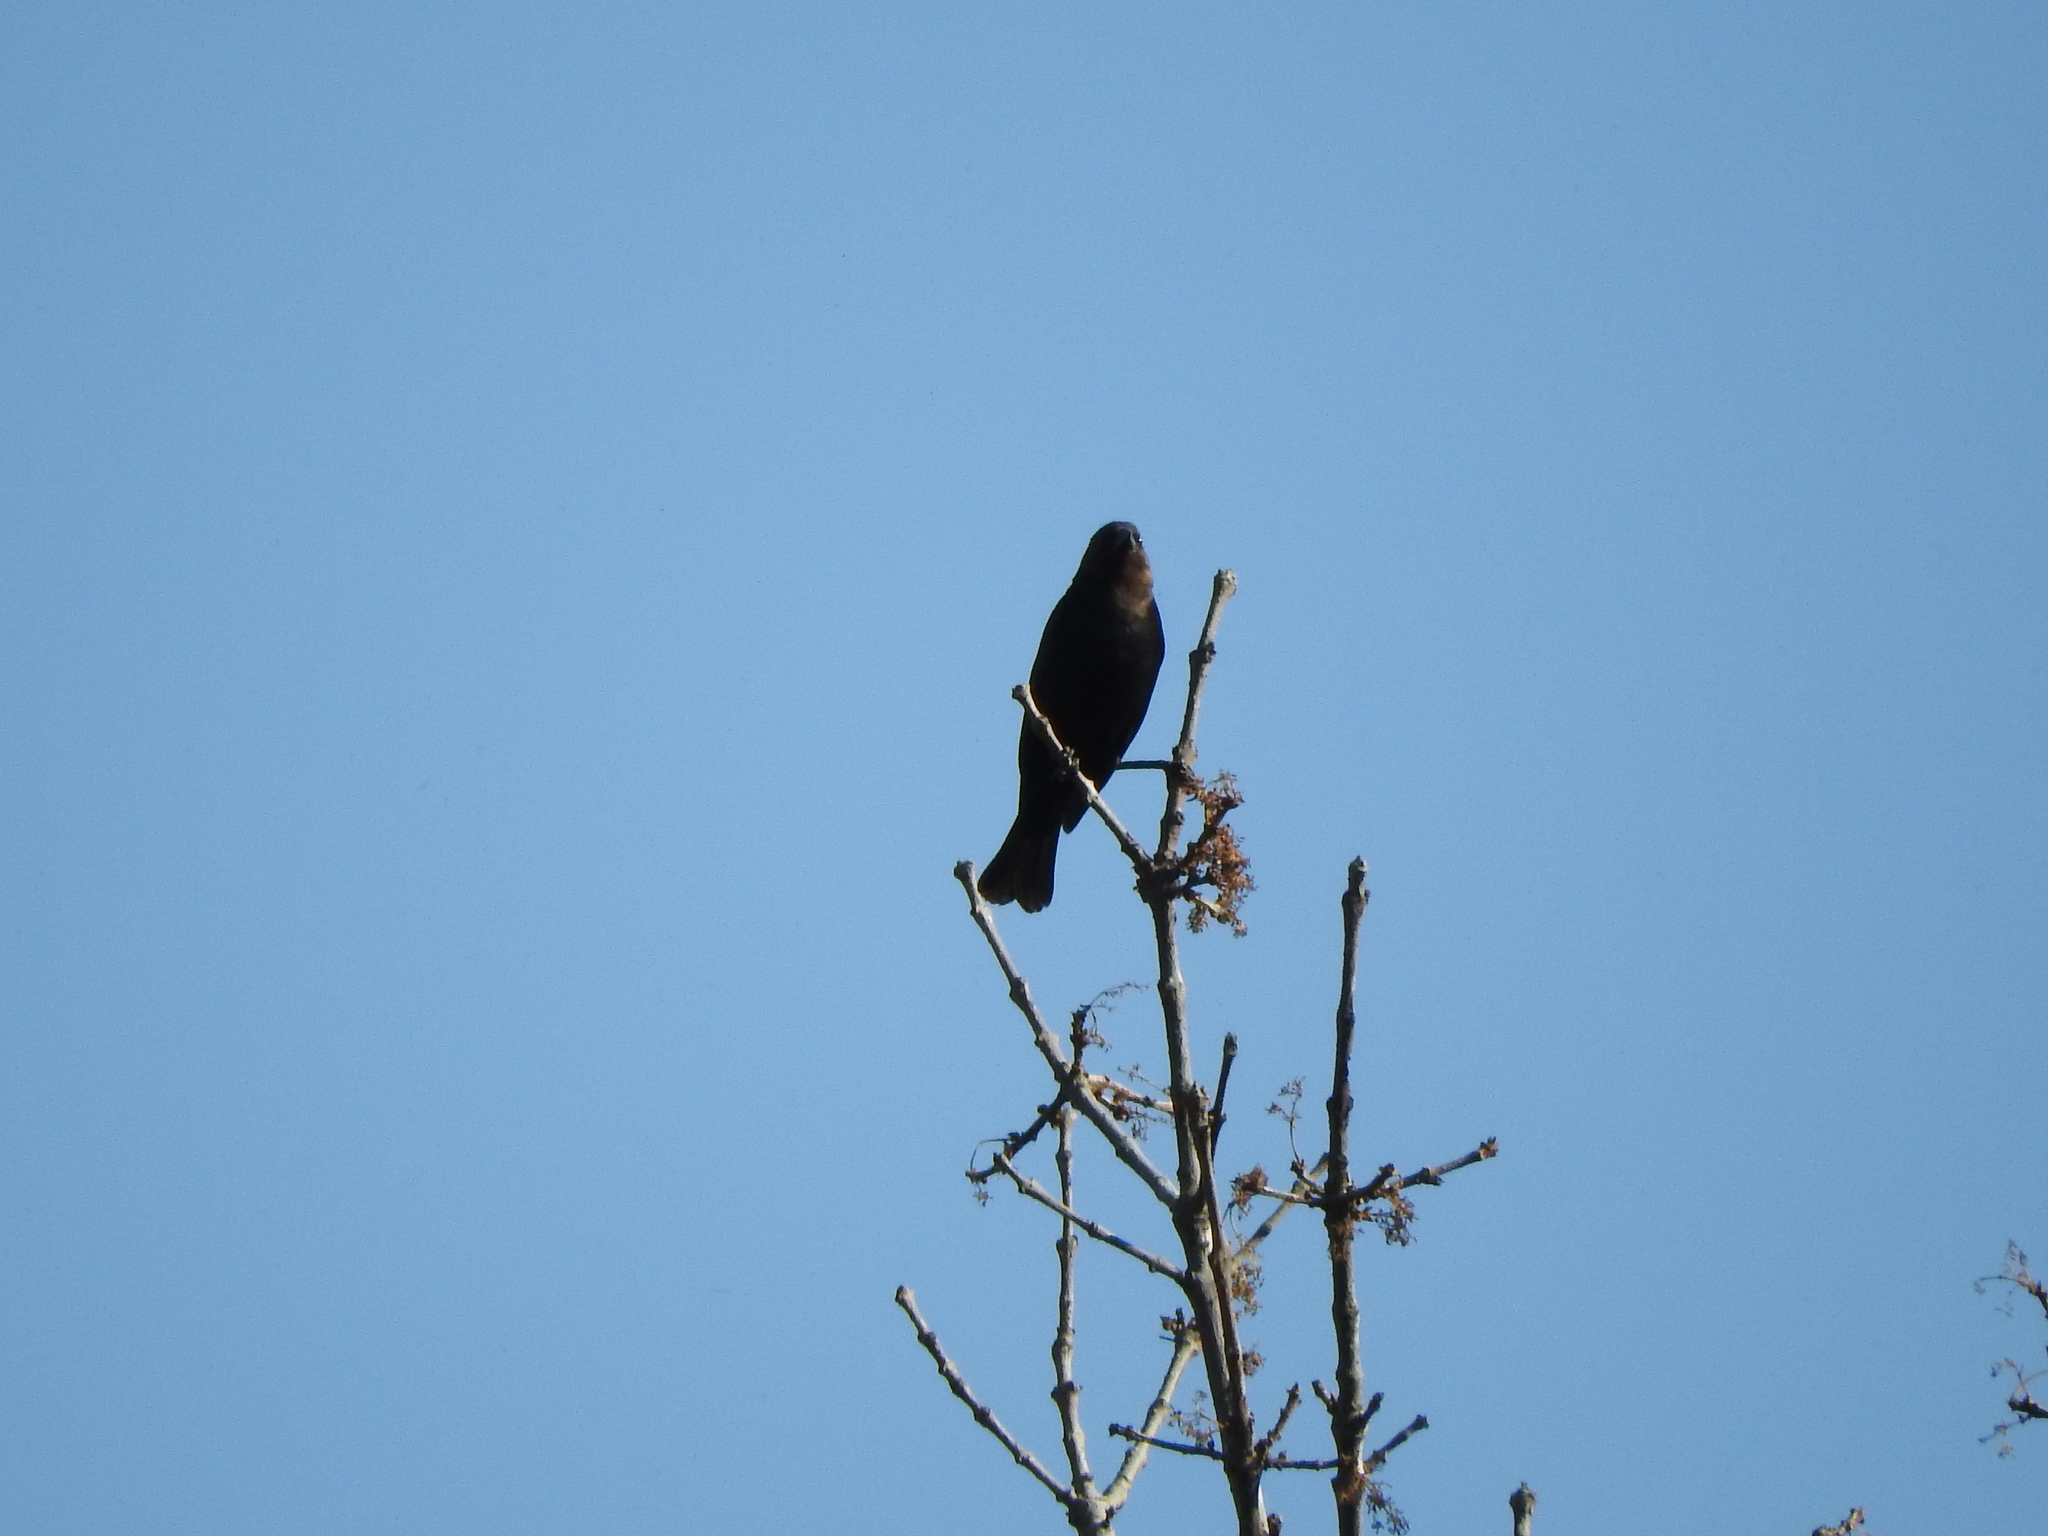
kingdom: Animalia
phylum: Chordata
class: Aves
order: Passeriformes
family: Icteridae
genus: Molothrus
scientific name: Molothrus ater
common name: Brown-headed cowbird
